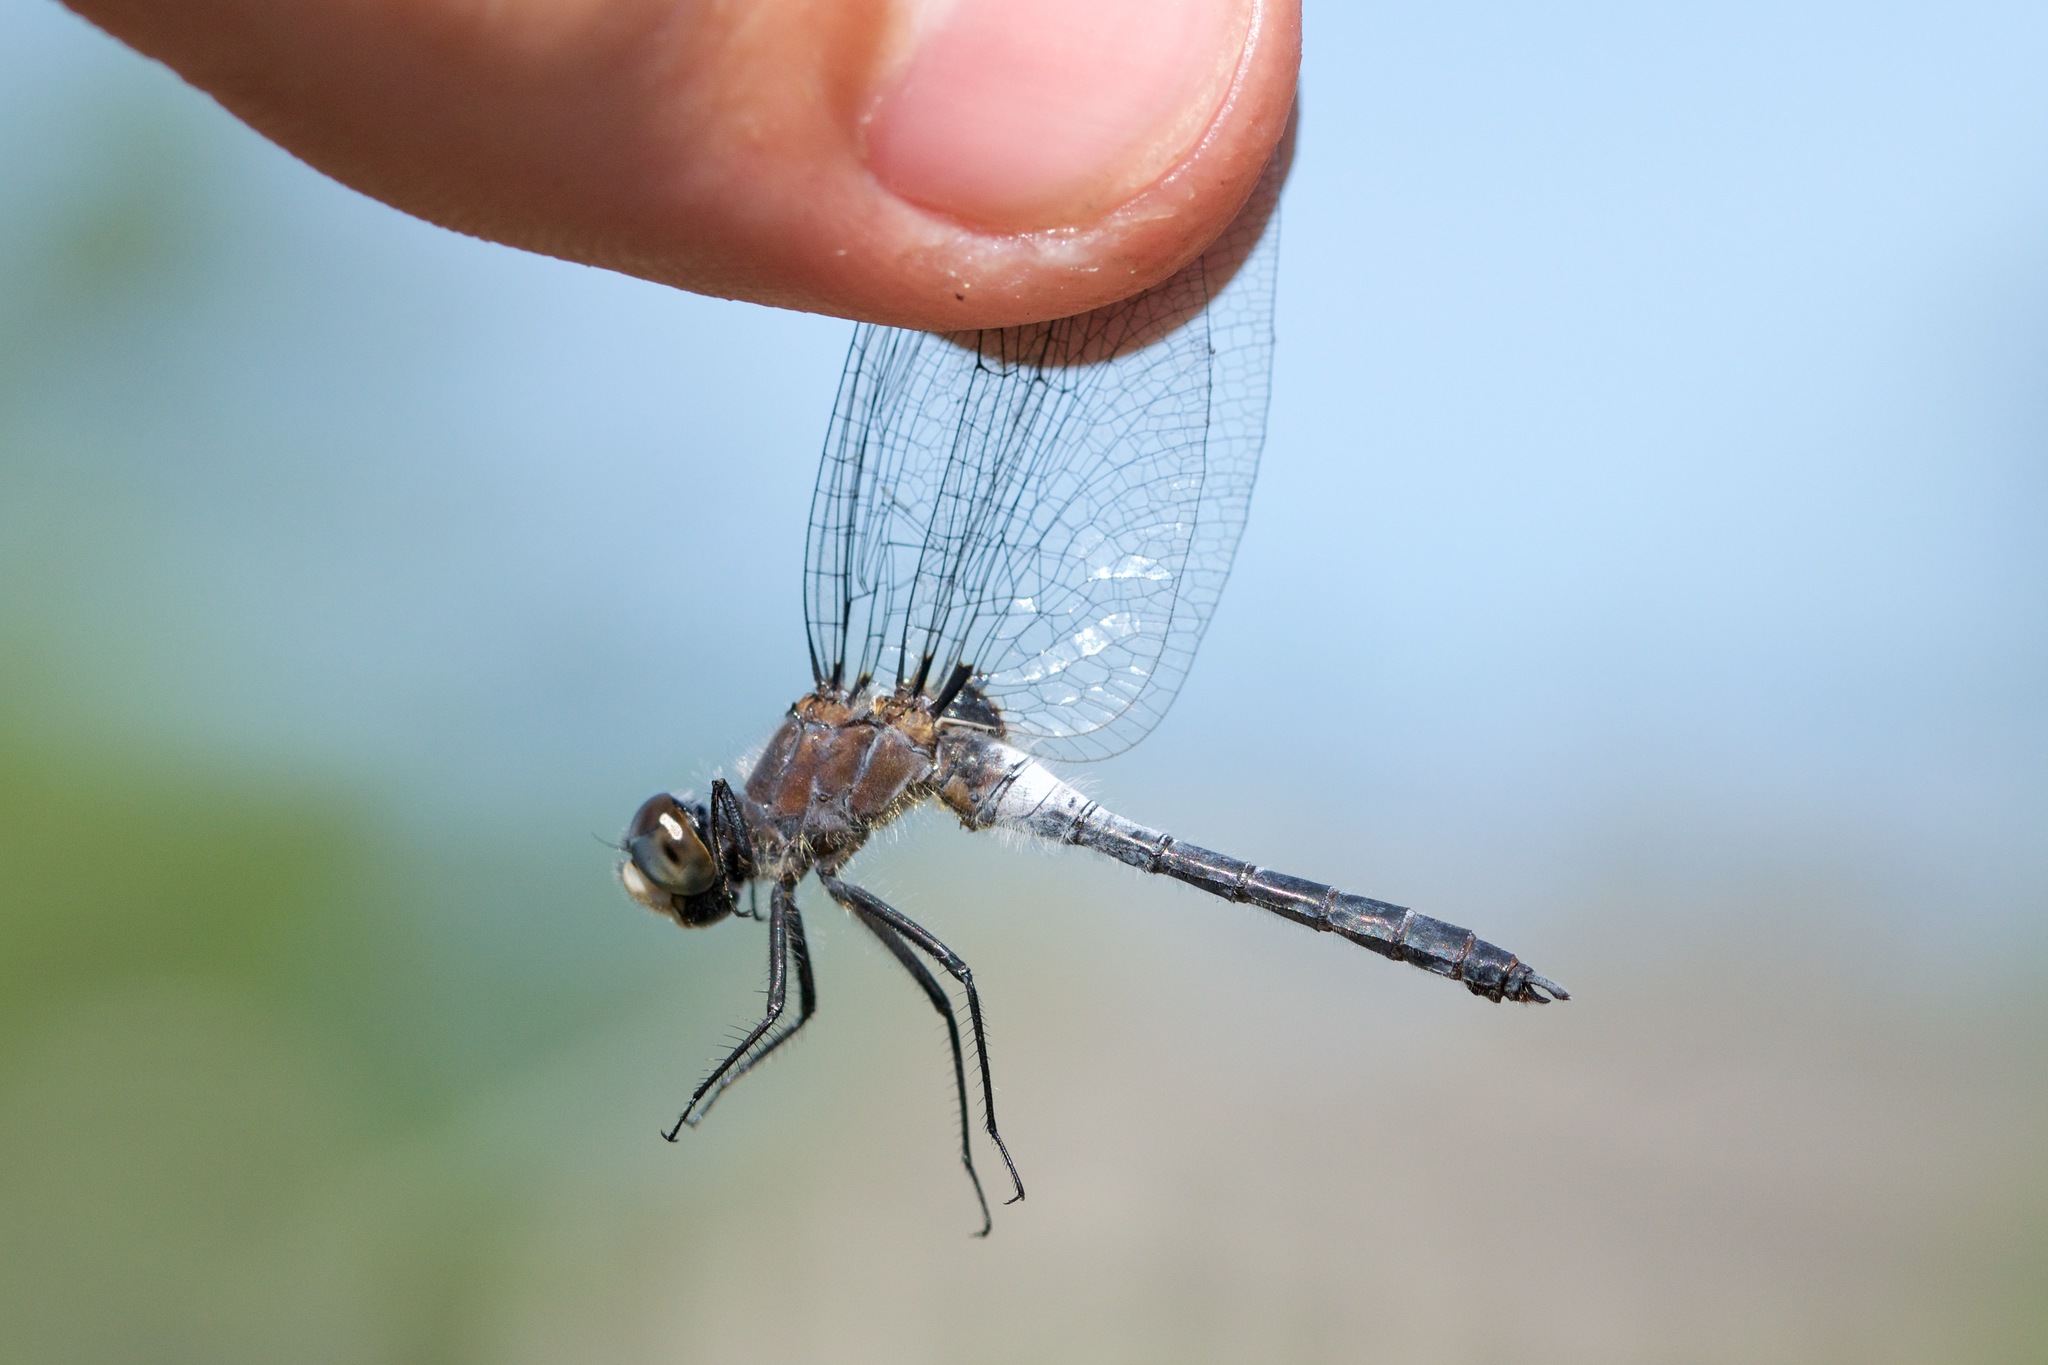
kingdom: Animalia
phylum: Arthropoda
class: Insecta
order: Odonata
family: Libellulidae
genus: Leucorrhinia
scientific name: Leucorrhinia frigida
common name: Frosted whiteface
